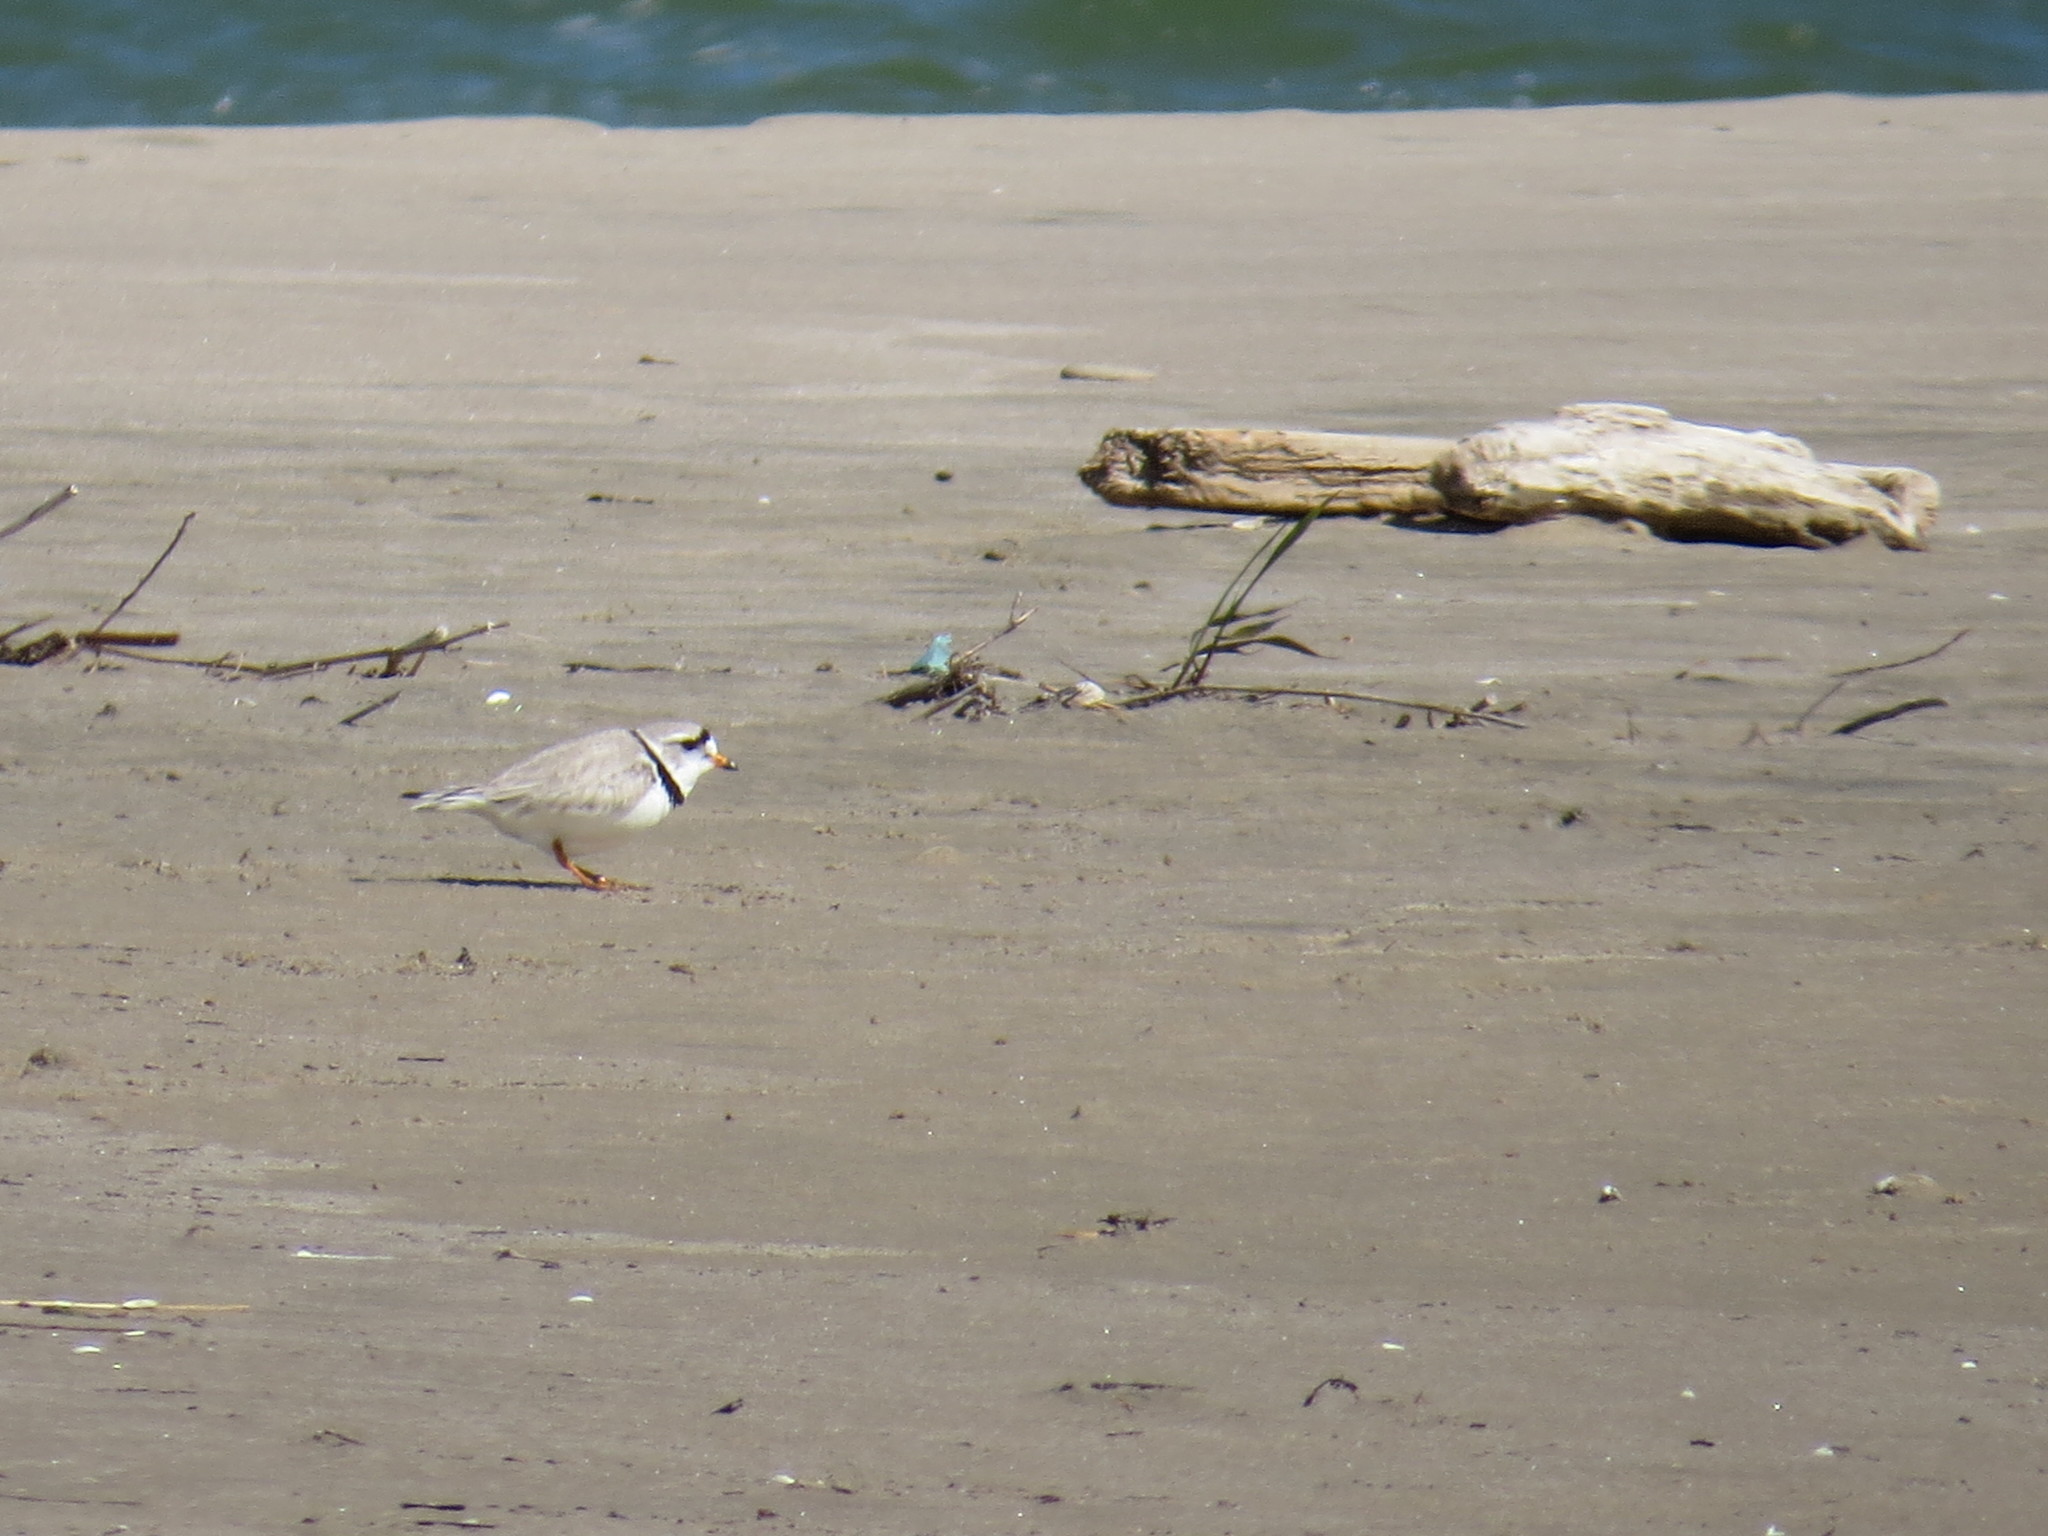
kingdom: Animalia
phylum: Chordata
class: Aves
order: Charadriiformes
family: Charadriidae
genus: Charadrius
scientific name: Charadrius melodus
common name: Piping plover
